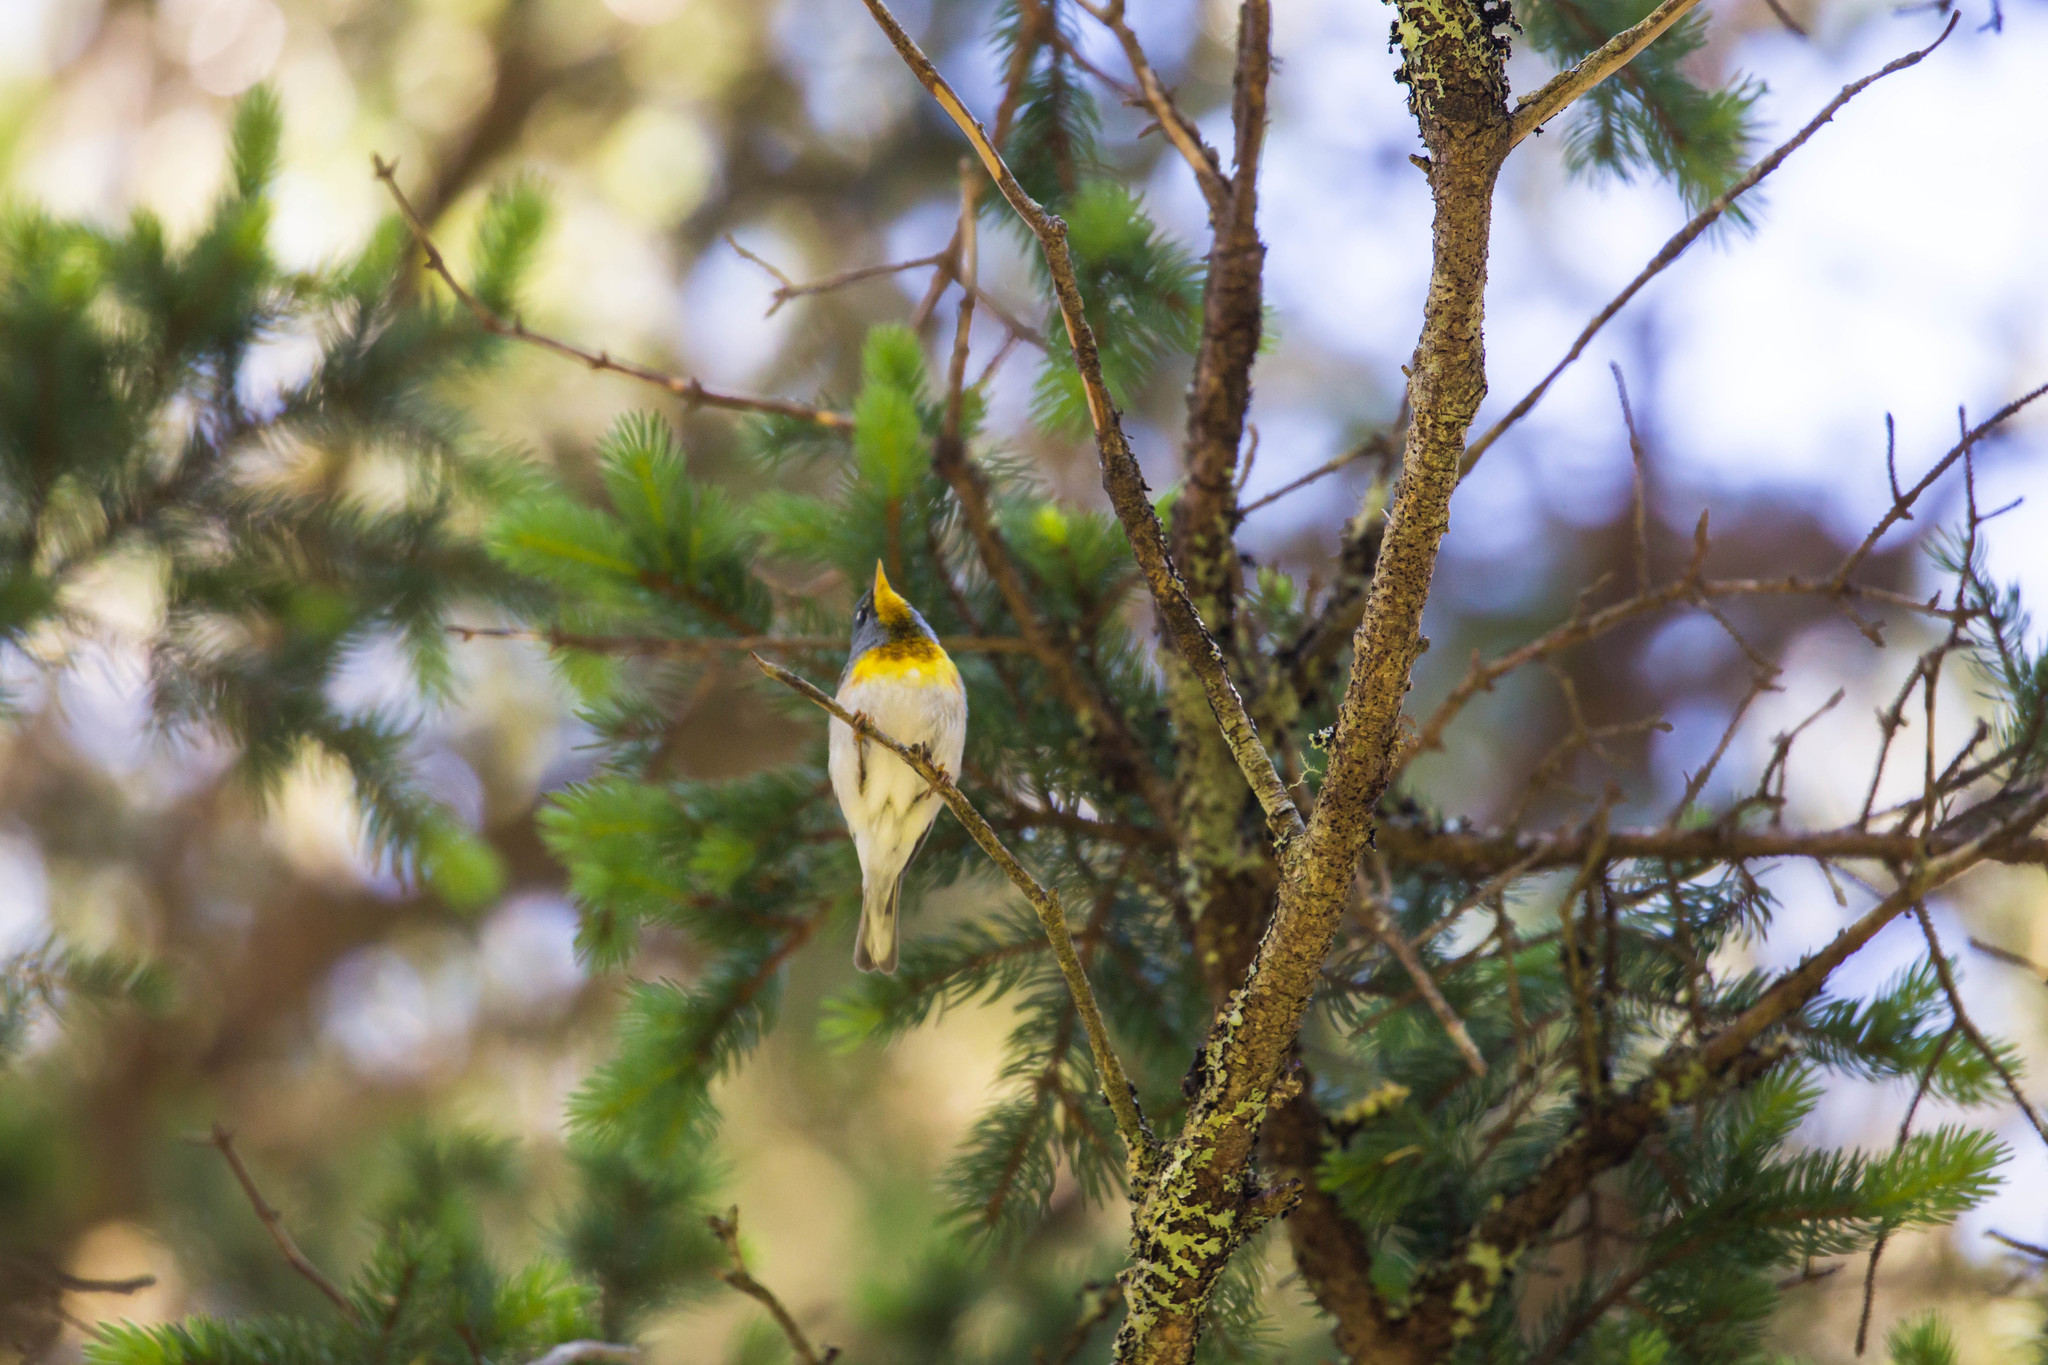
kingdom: Animalia
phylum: Chordata
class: Aves
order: Passeriformes
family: Parulidae
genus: Setophaga
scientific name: Setophaga americana
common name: Northern parula
